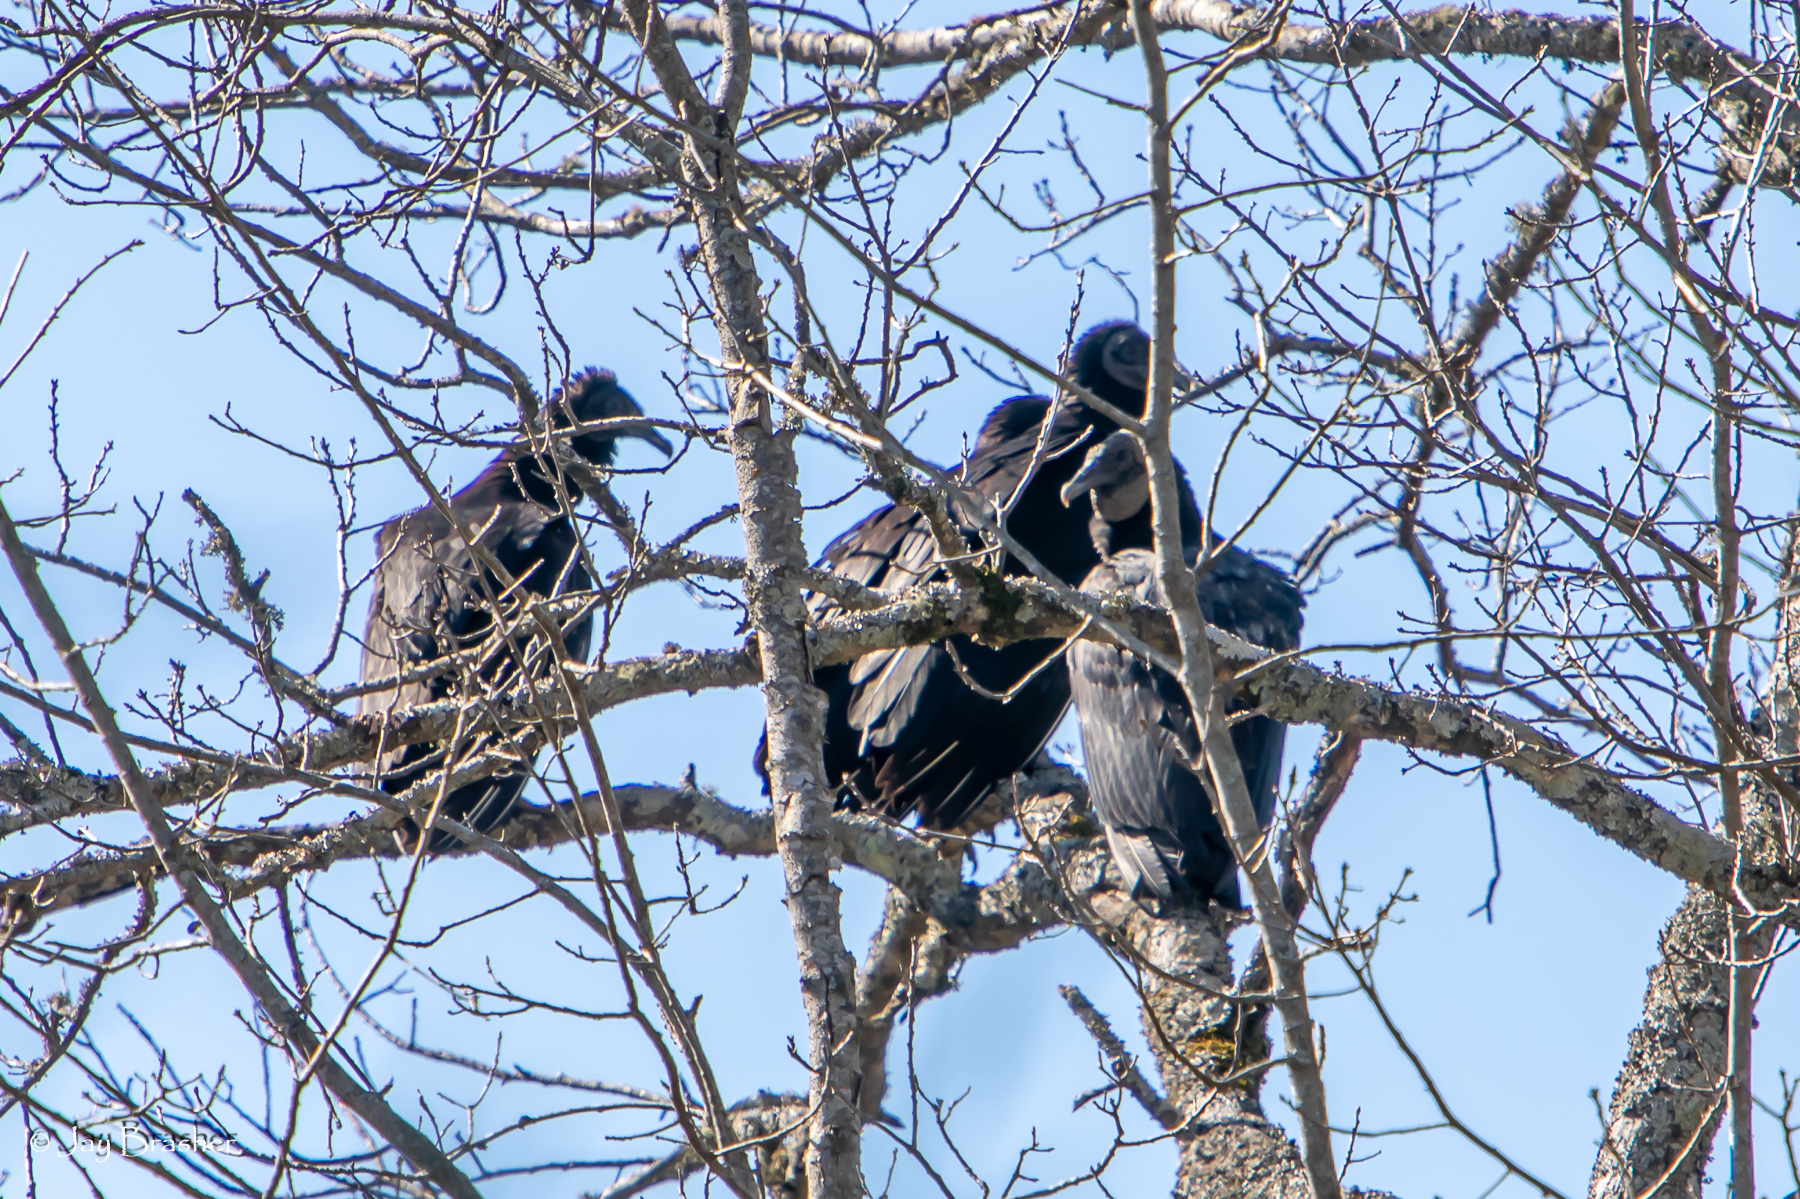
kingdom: Animalia
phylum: Chordata
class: Aves
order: Accipitriformes
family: Cathartidae
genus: Coragyps
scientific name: Coragyps atratus
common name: Black vulture
